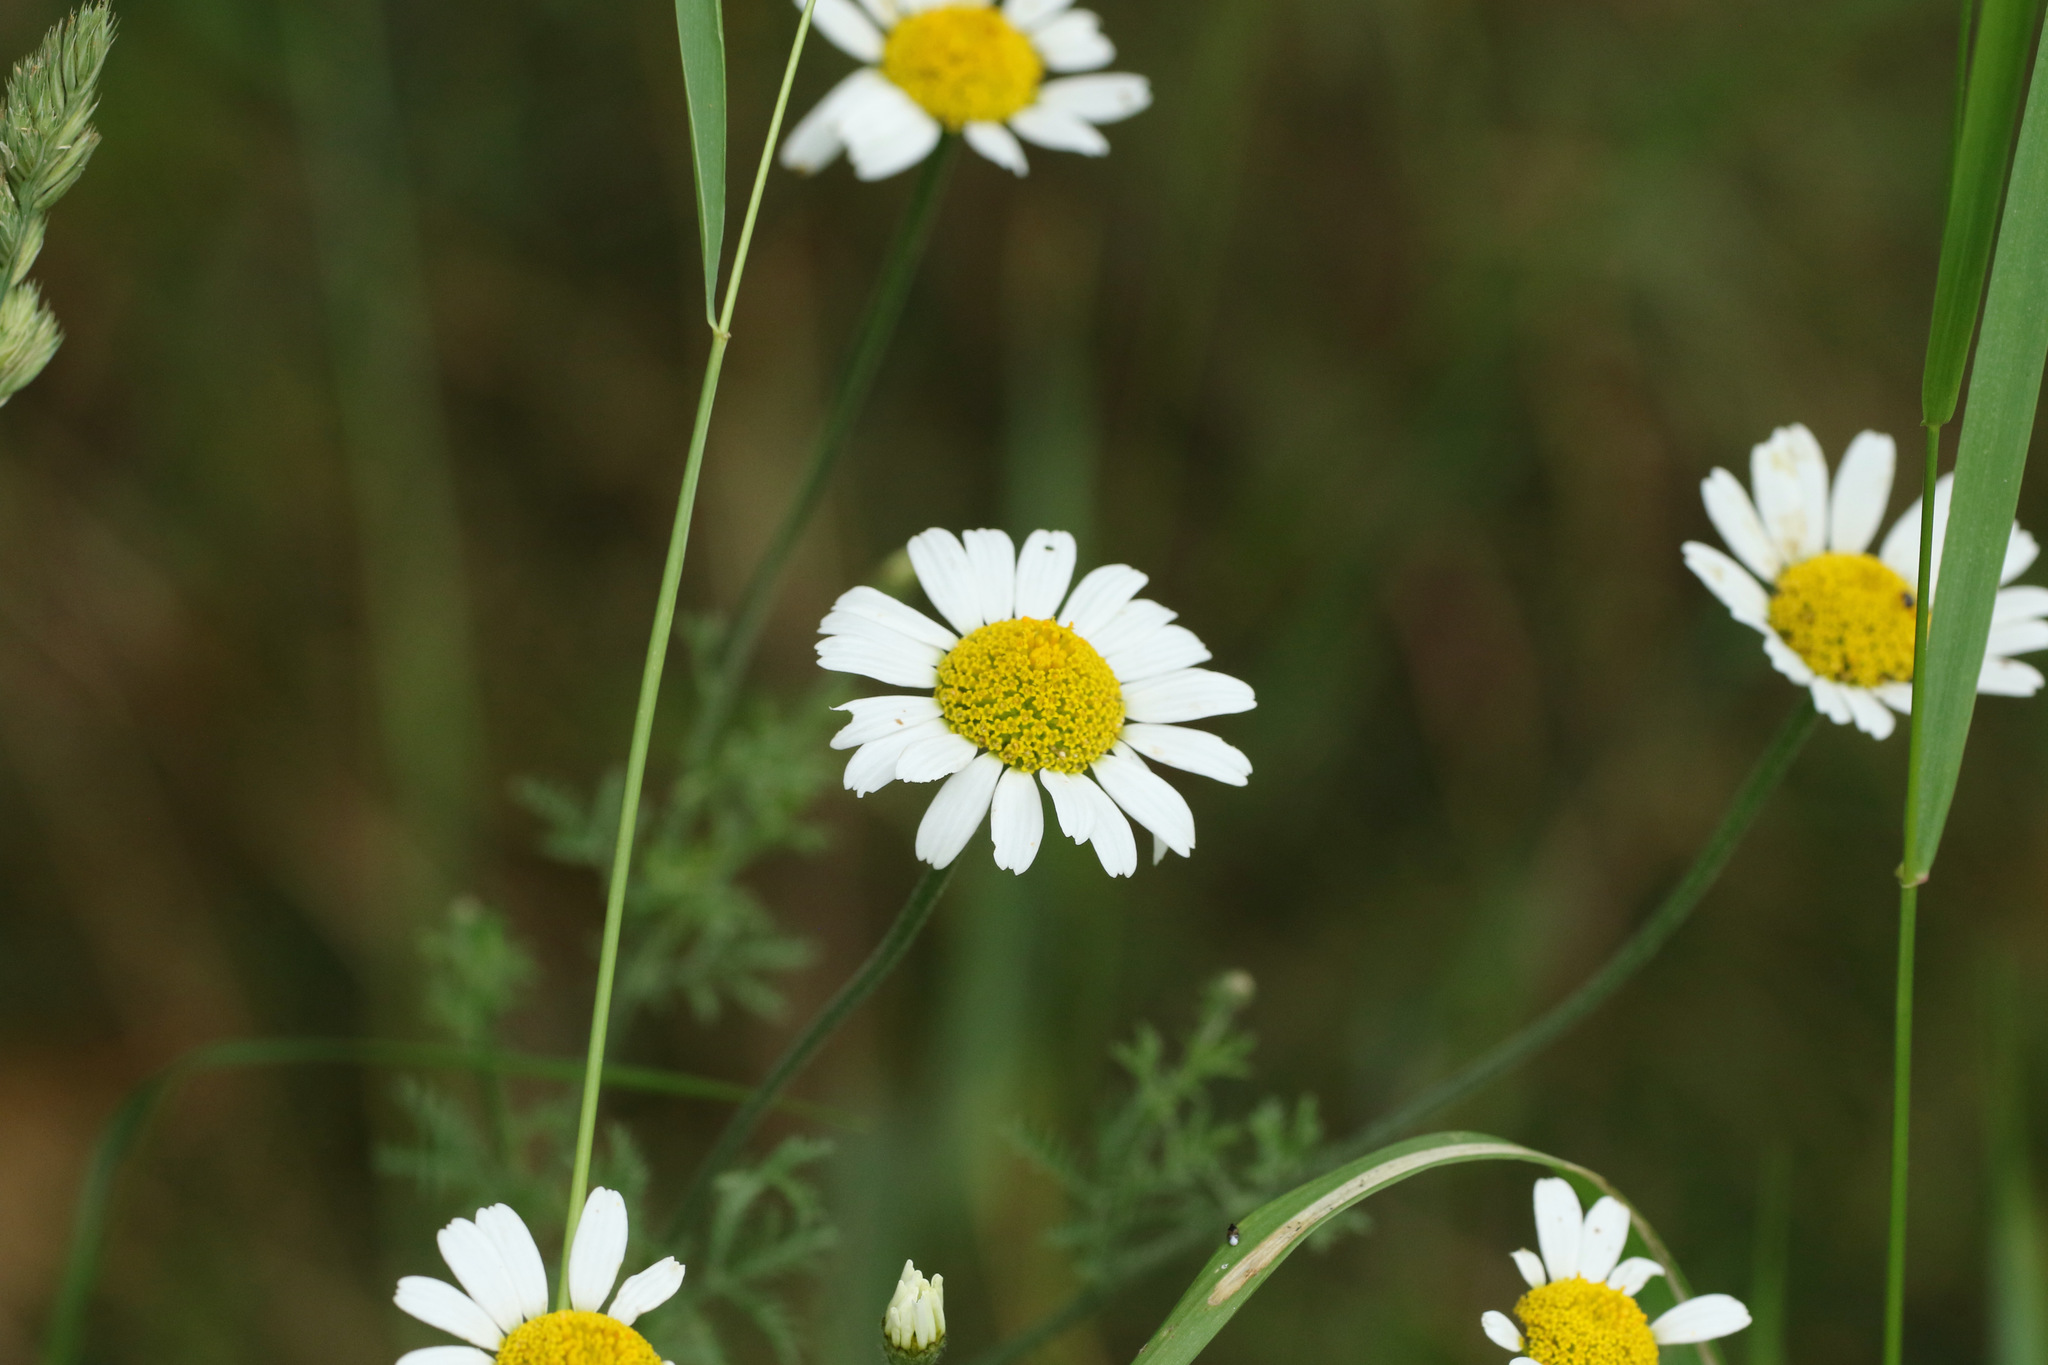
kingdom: Plantae
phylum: Tracheophyta
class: Magnoliopsida
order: Asterales
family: Asteraceae
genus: Leucanthemum
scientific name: Leucanthemum vulgare
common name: Oxeye daisy
